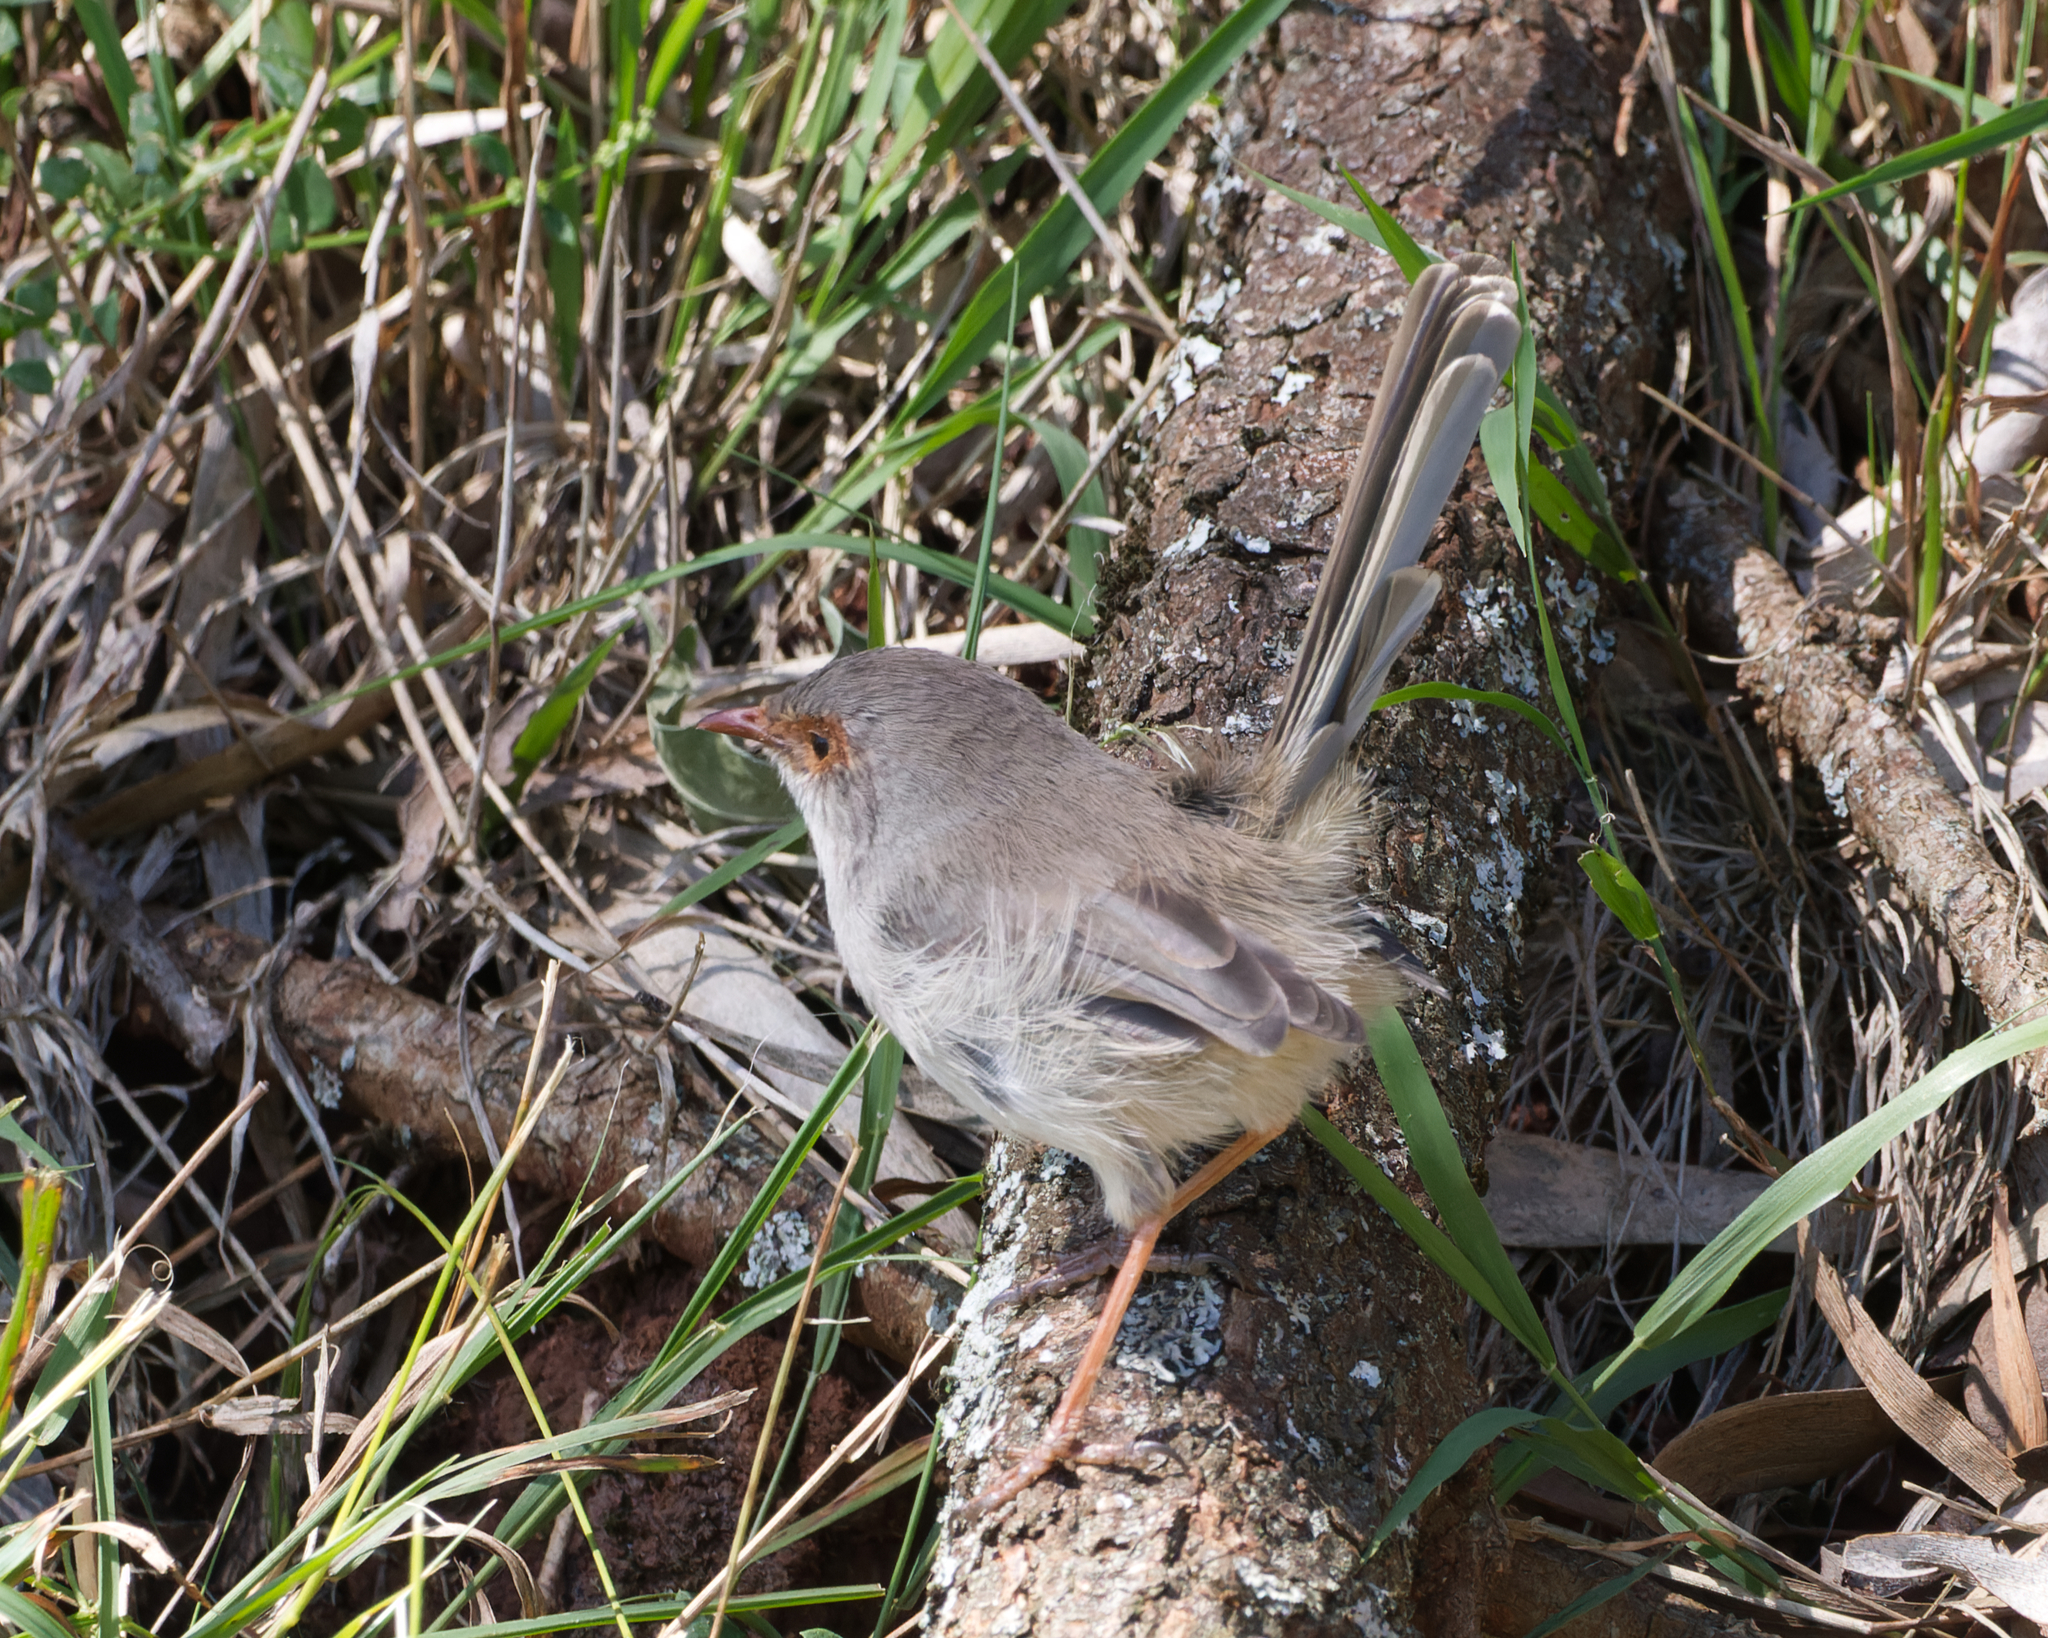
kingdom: Animalia
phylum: Chordata
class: Aves
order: Passeriformes
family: Maluridae
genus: Malurus
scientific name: Malurus cyaneus
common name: Superb fairywren
